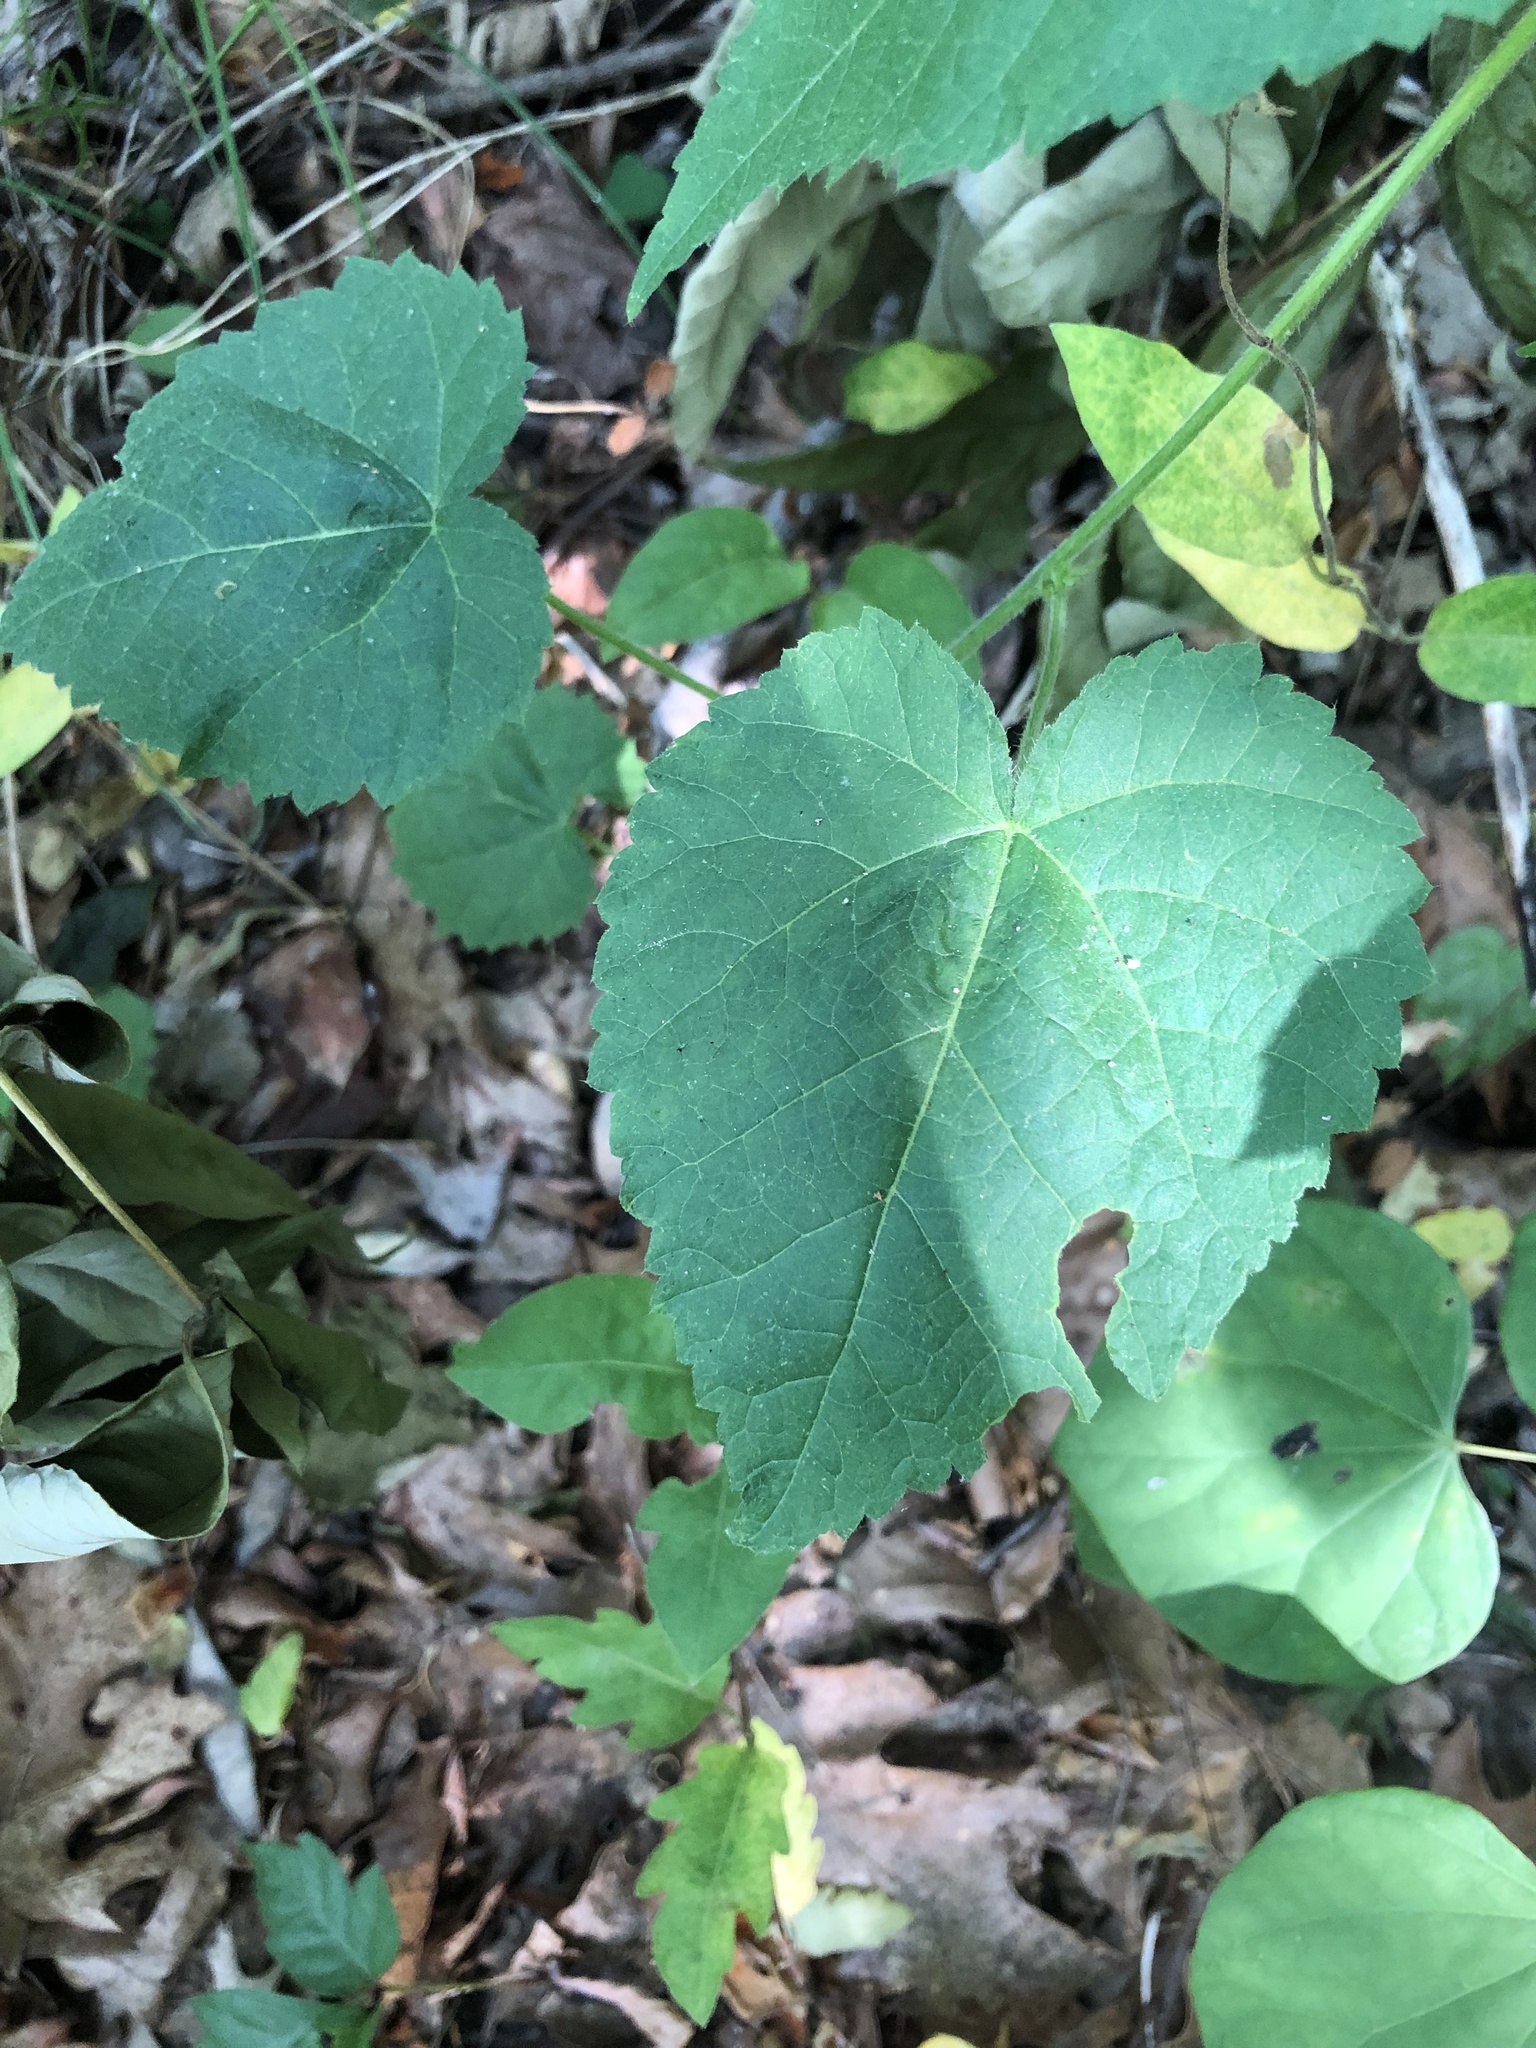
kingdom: Plantae
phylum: Tracheophyta
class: Magnoliopsida
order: Malpighiales
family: Euphorbiaceae
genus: Tragia
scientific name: Tragia cordata
